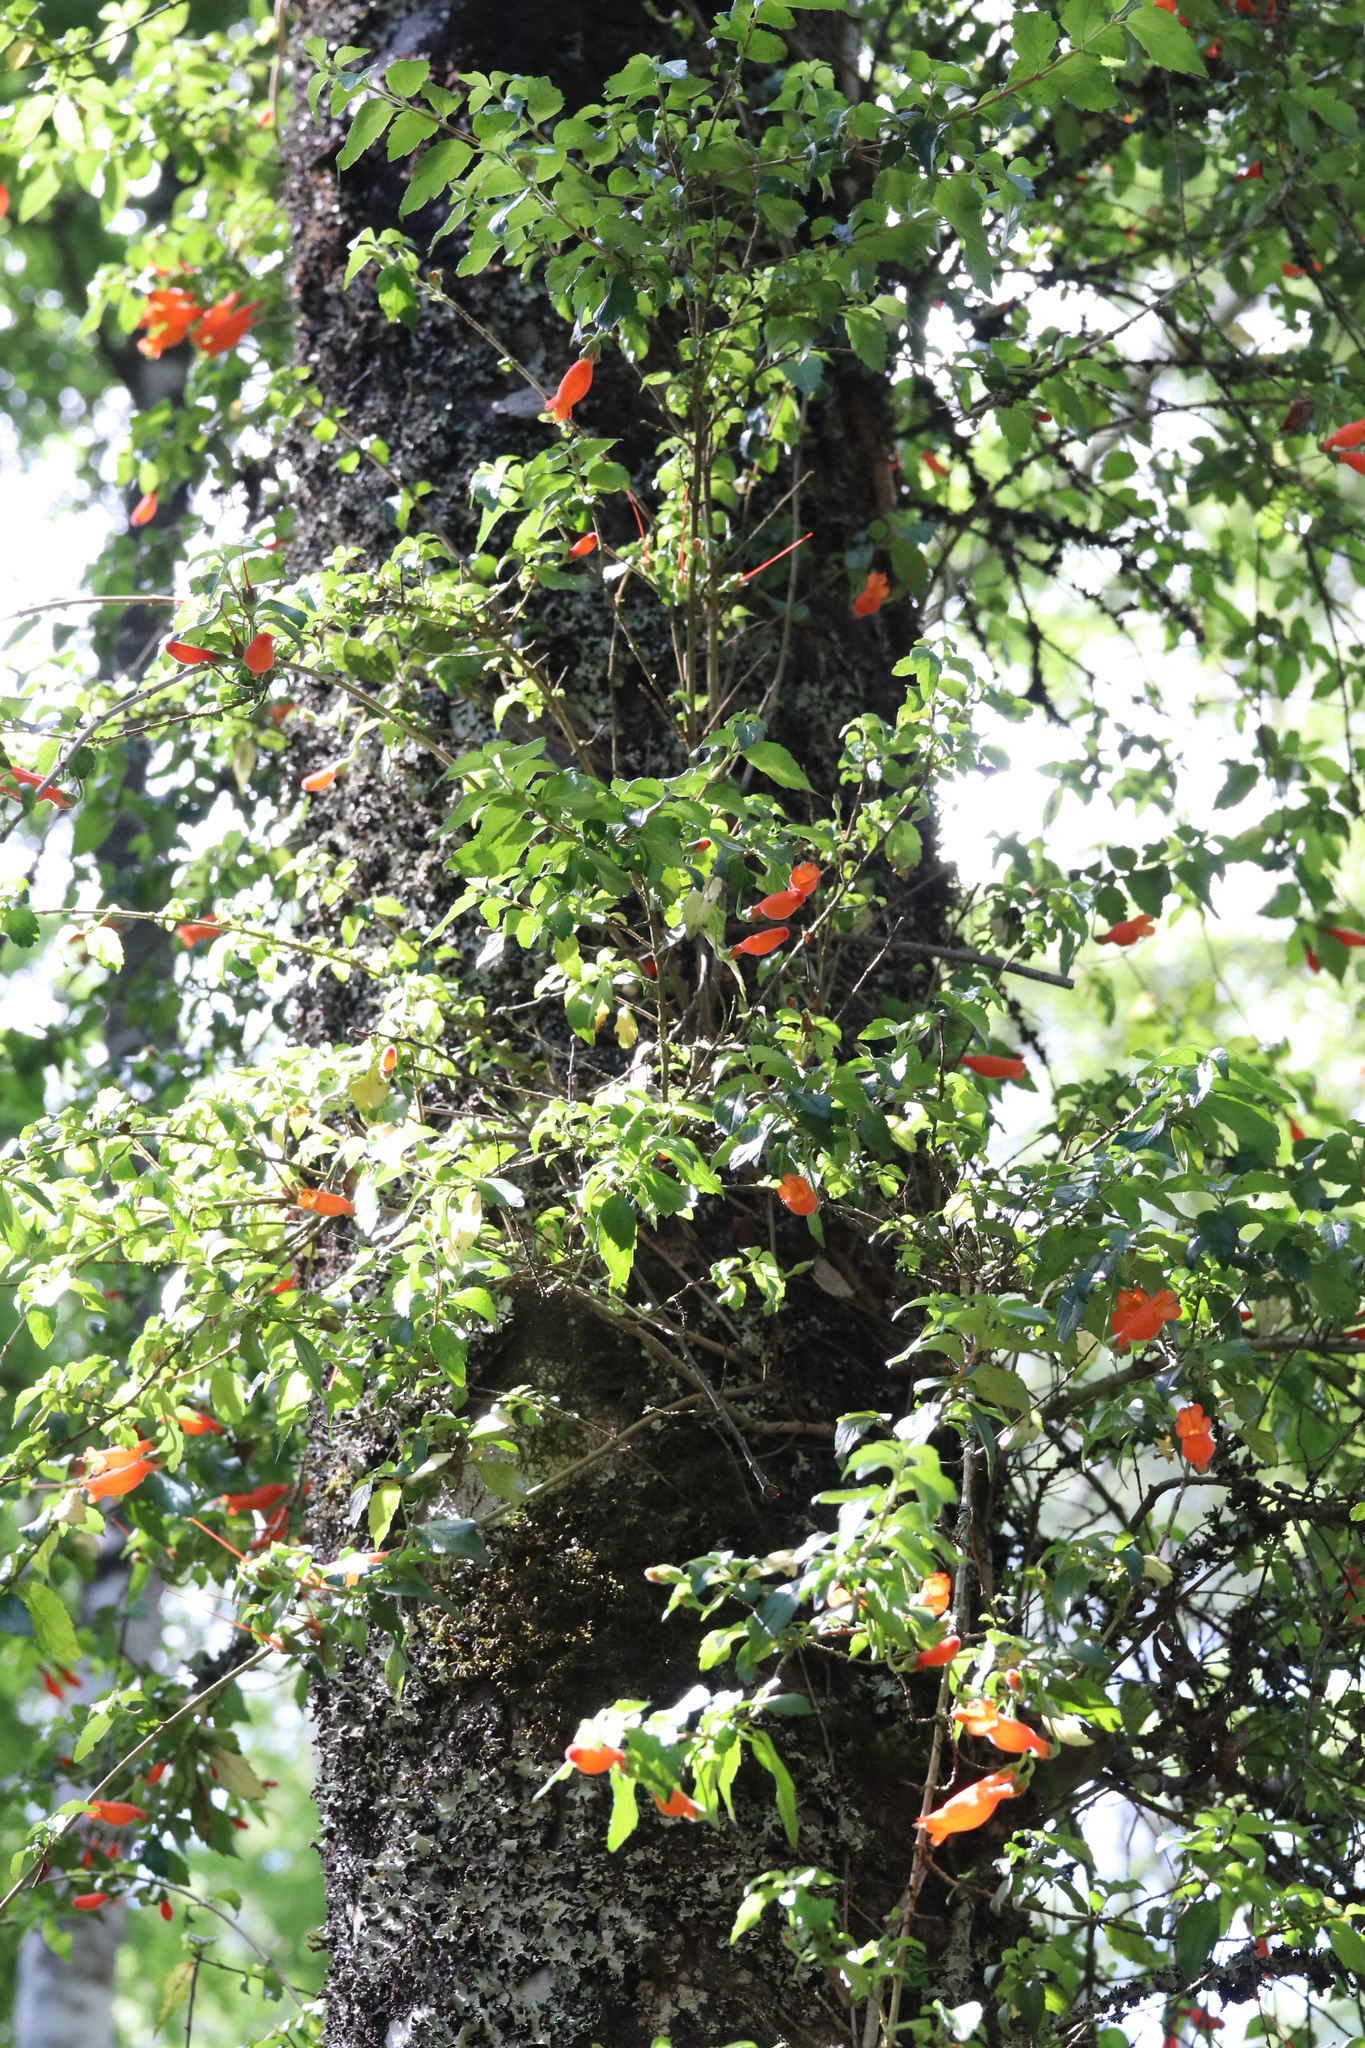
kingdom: Plantae
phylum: Tracheophyta
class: Magnoliopsida
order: Lamiales
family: Gesneriaceae
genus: Mitraria
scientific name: Mitraria coccinea
